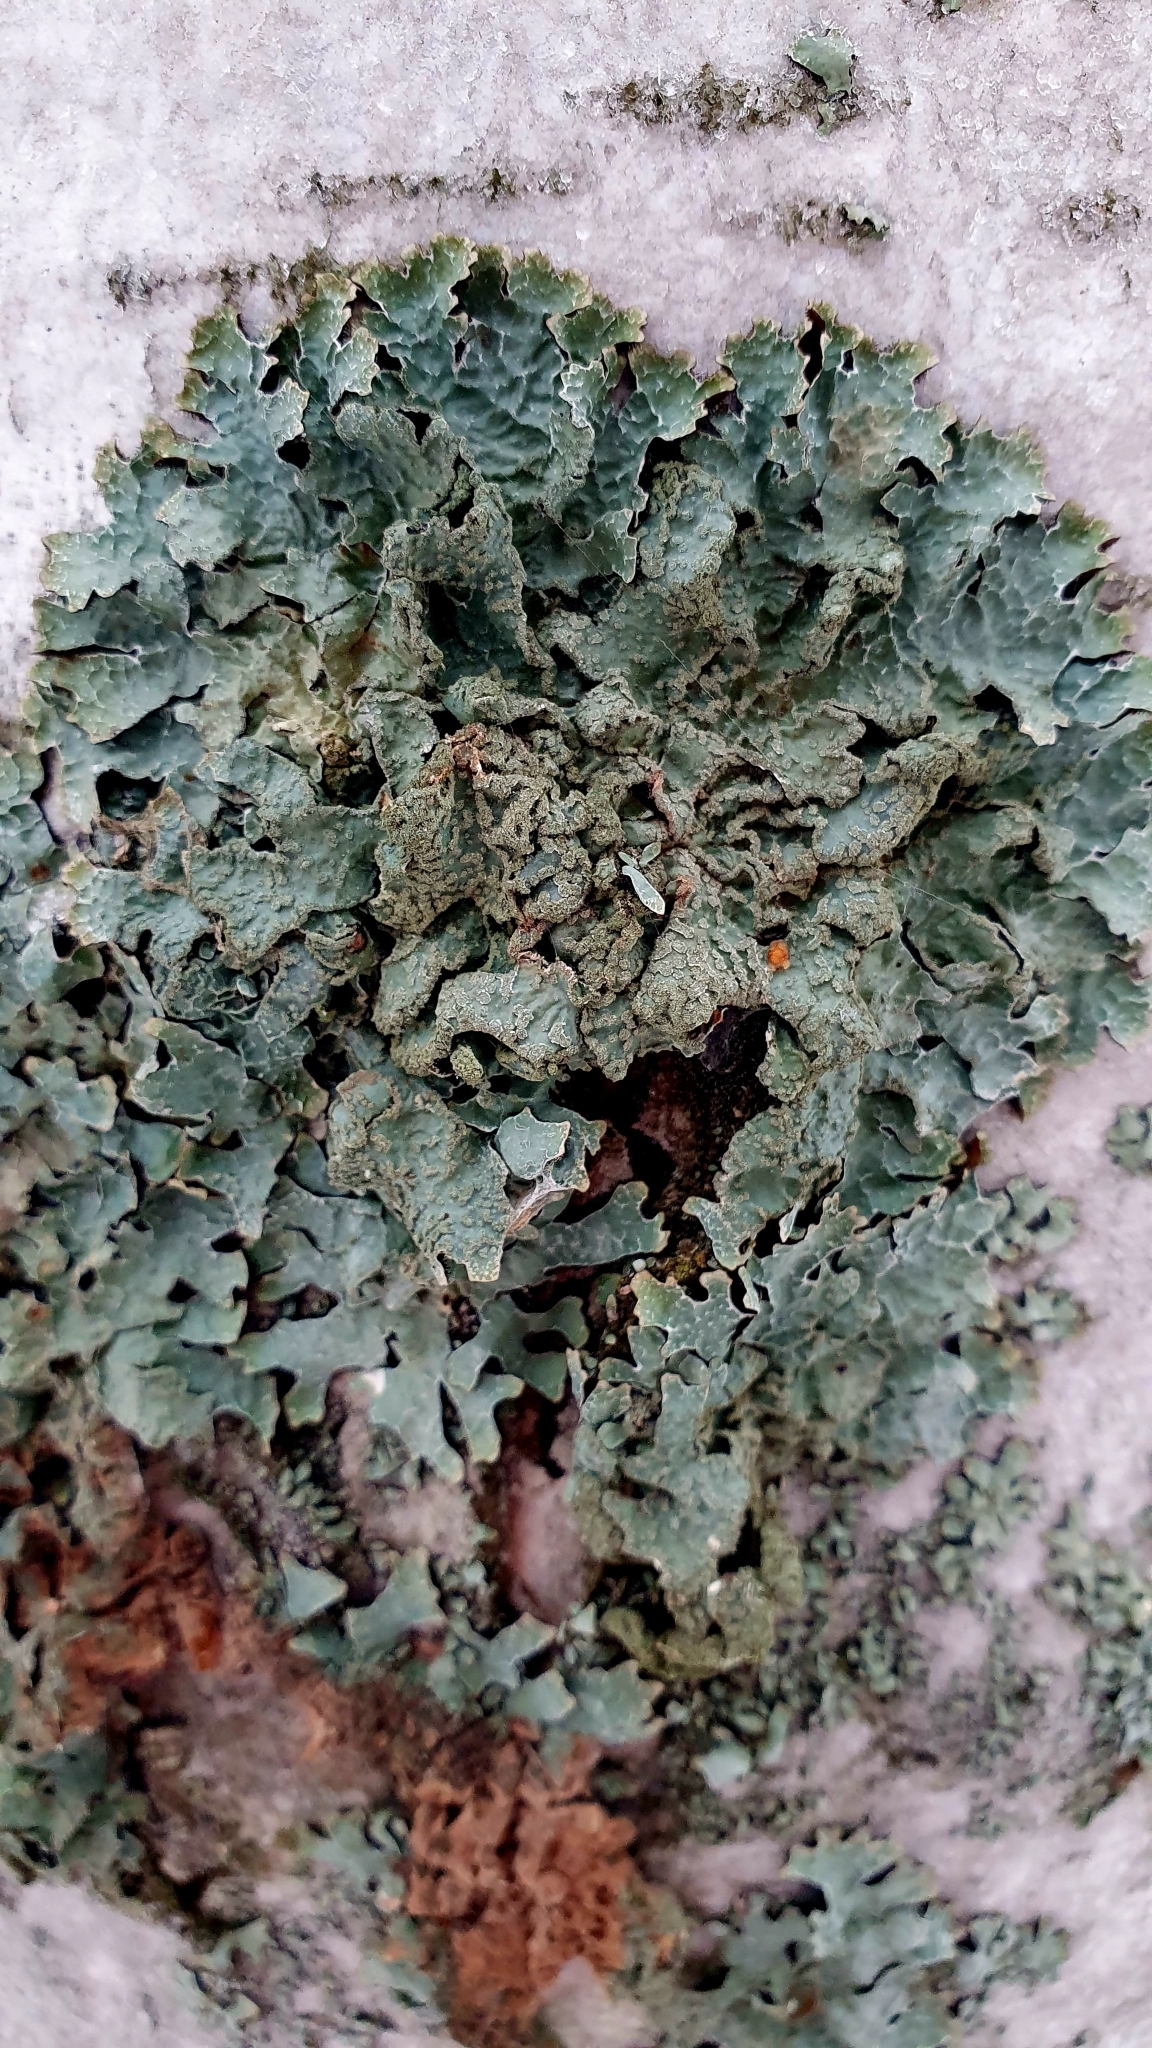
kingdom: Fungi
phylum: Ascomycota
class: Lecanoromycetes
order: Lecanorales
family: Parmeliaceae
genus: Parmelia
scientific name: Parmelia sulcata
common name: Netted shield lichen
